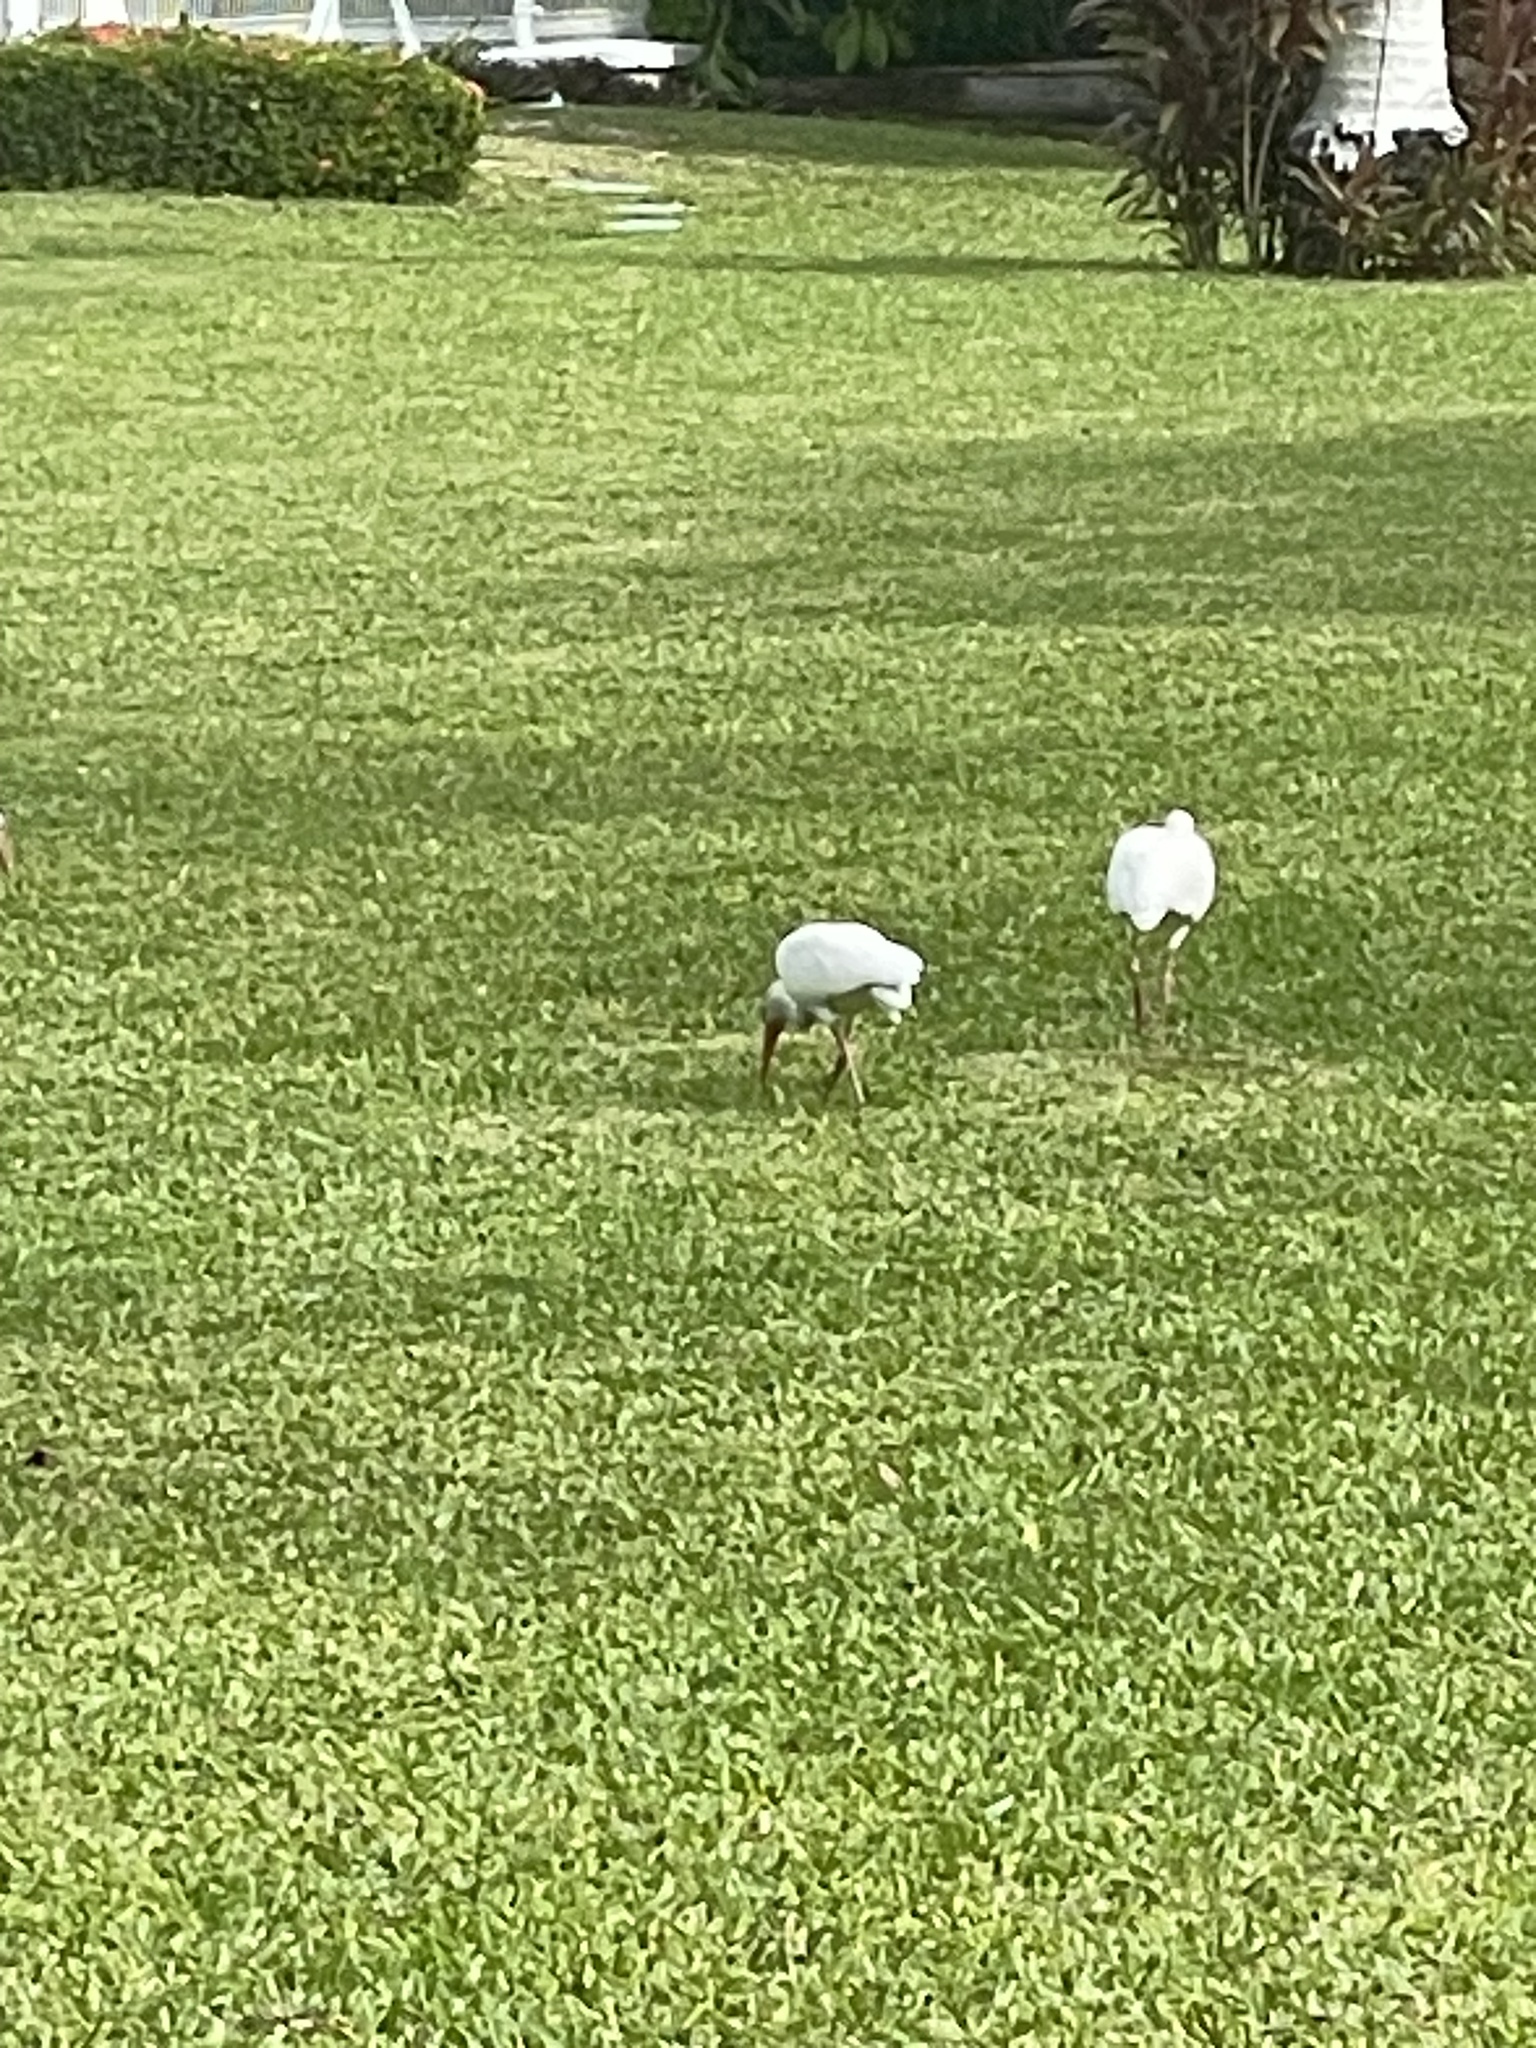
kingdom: Animalia
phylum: Chordata
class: Aves
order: Pelecaniformes
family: Threskiornithidae
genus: Eudocimus
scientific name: Eudocimus albus
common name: White ibis
